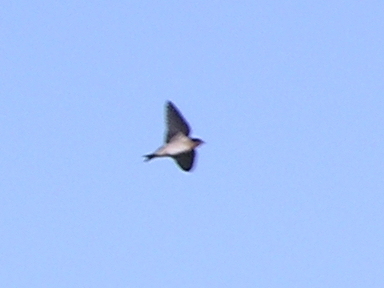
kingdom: Animalia
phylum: Chordata
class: Aves
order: Passeriformes
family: Hirundinidae
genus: Hirundo
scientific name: Hirundo neoxena
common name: Welcome swallow
